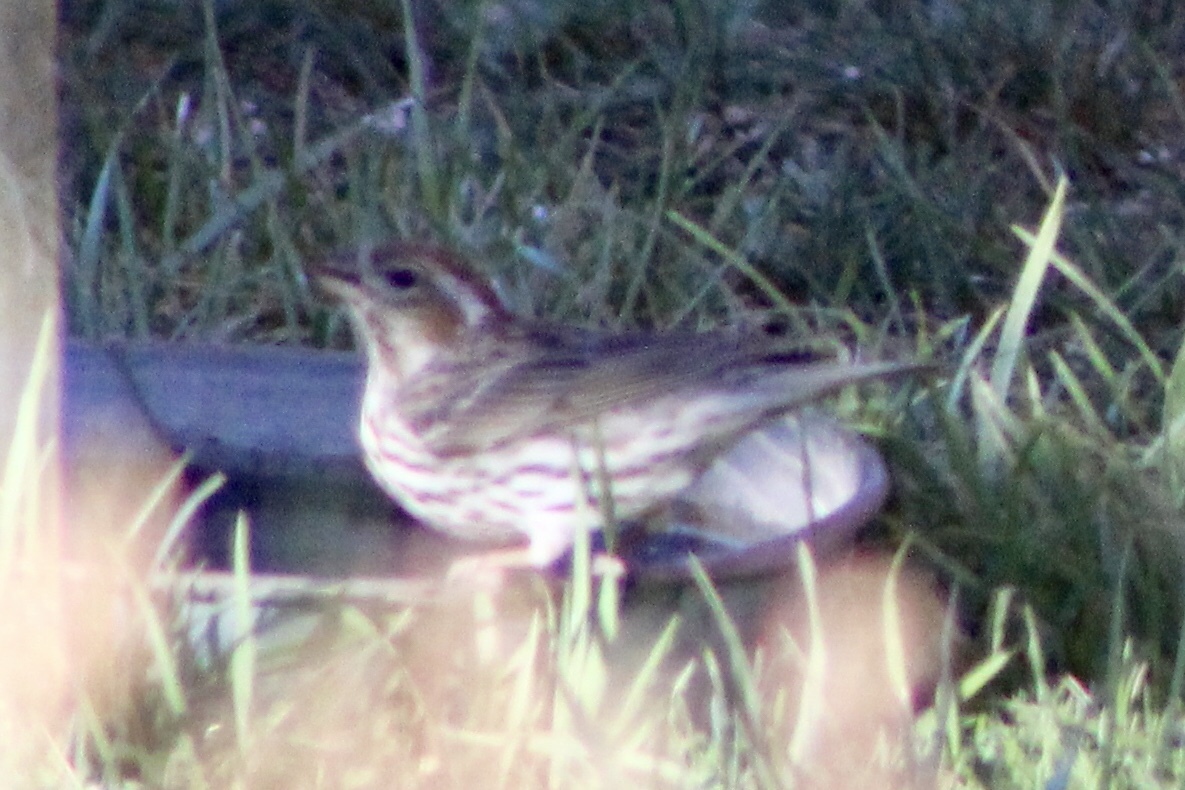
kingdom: Animalia
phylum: Chordata
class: Aves
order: Passeriformes
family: Fringillidae
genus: Haemorhous
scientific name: Haemorhous cassinii
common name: Cassin's finch
